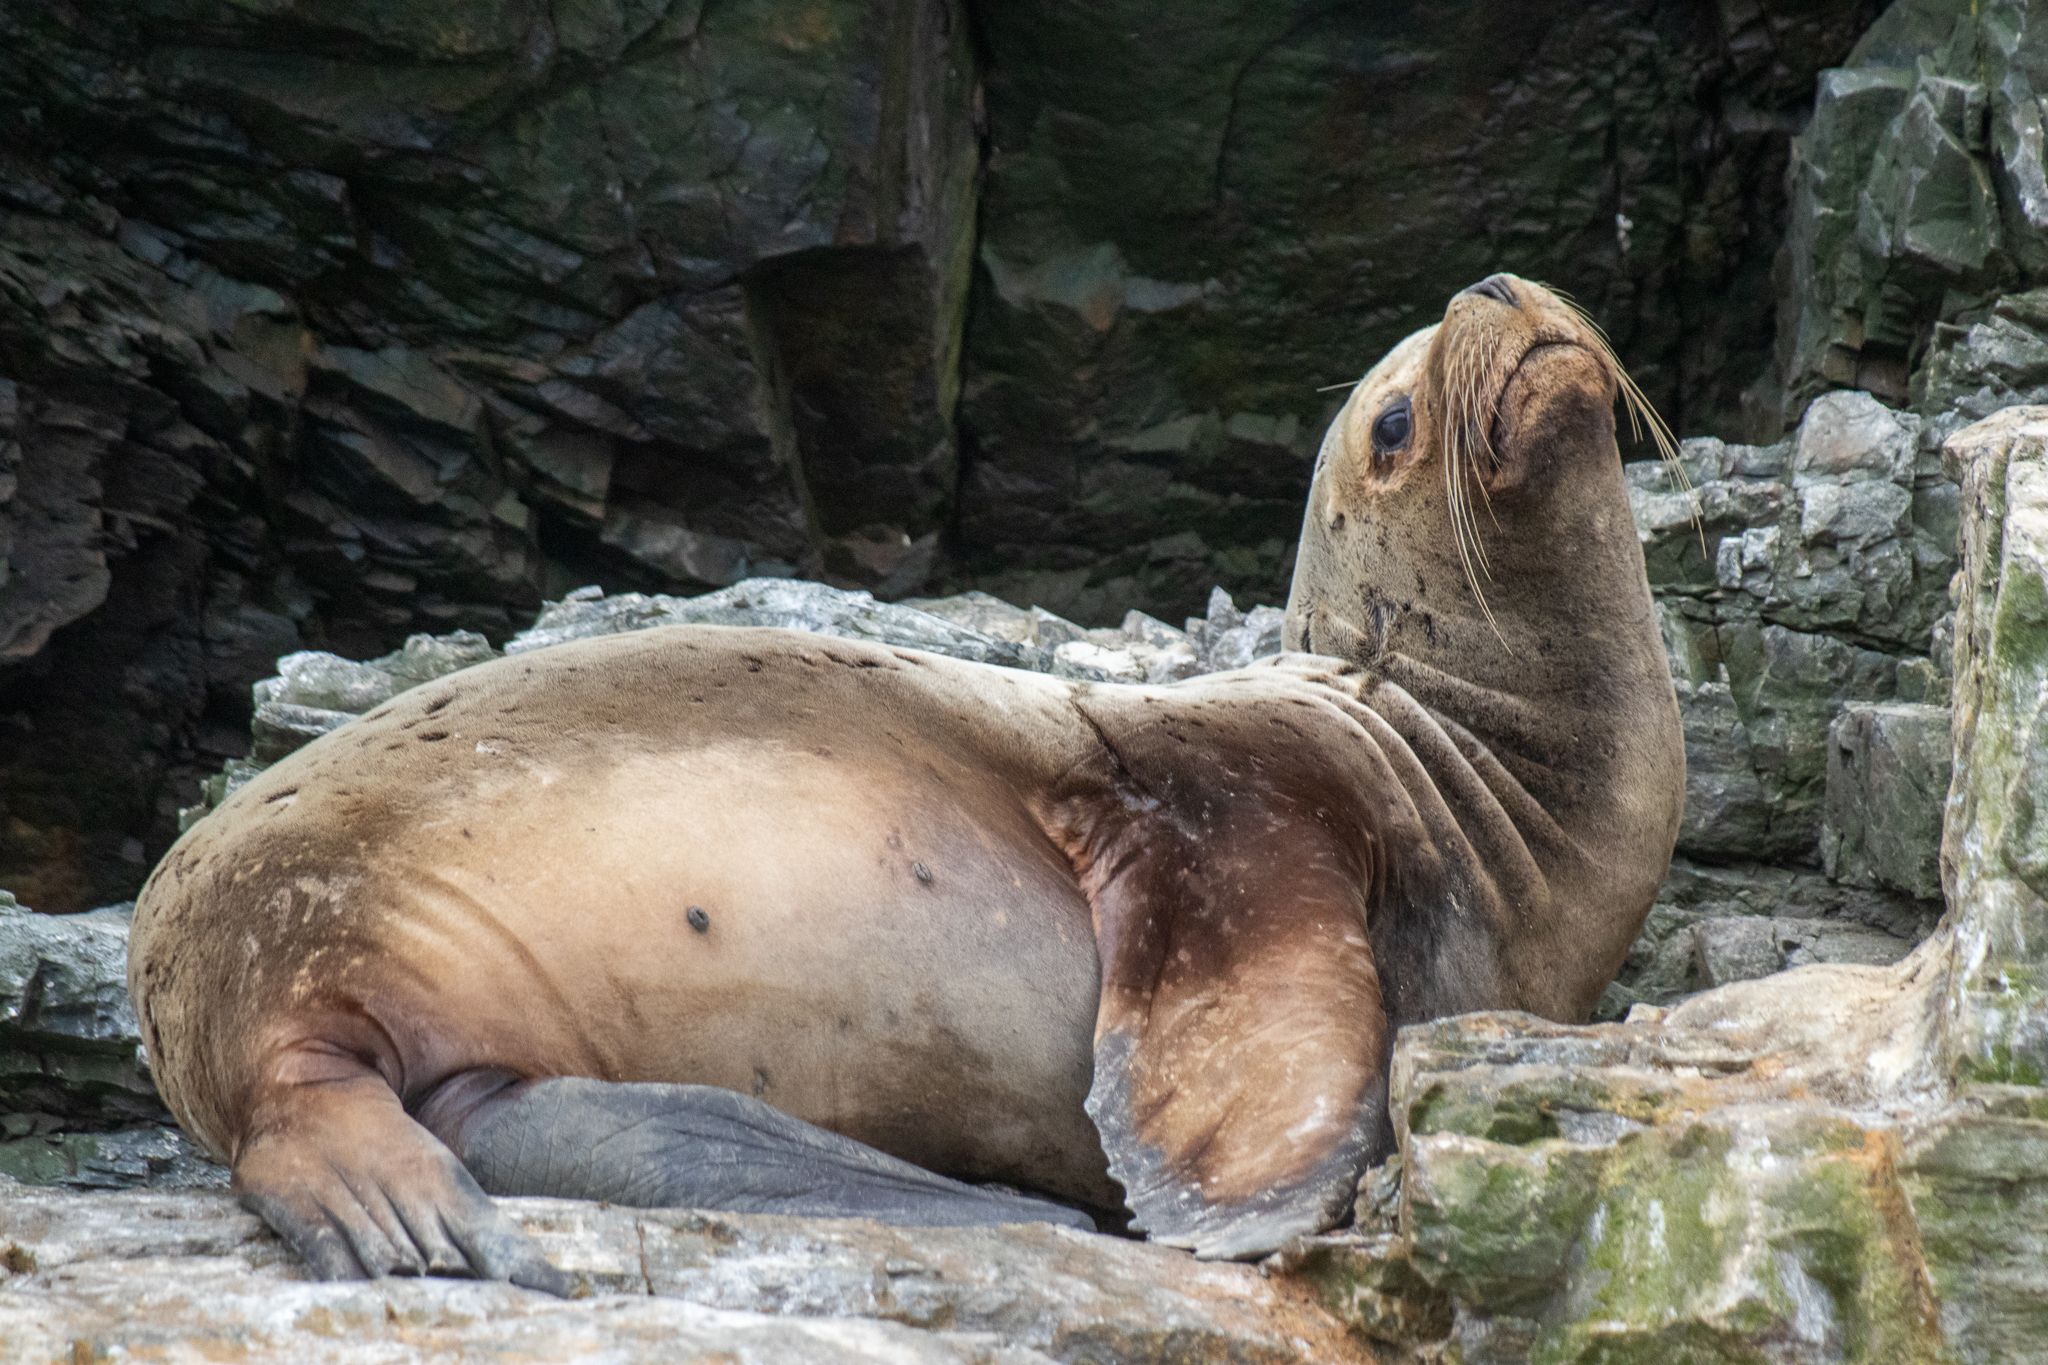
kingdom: Animalia
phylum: Chordata
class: Mammalia
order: Carnivora
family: Otariidae
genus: Otaria
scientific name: Otaria byronia
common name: South american sea lion
